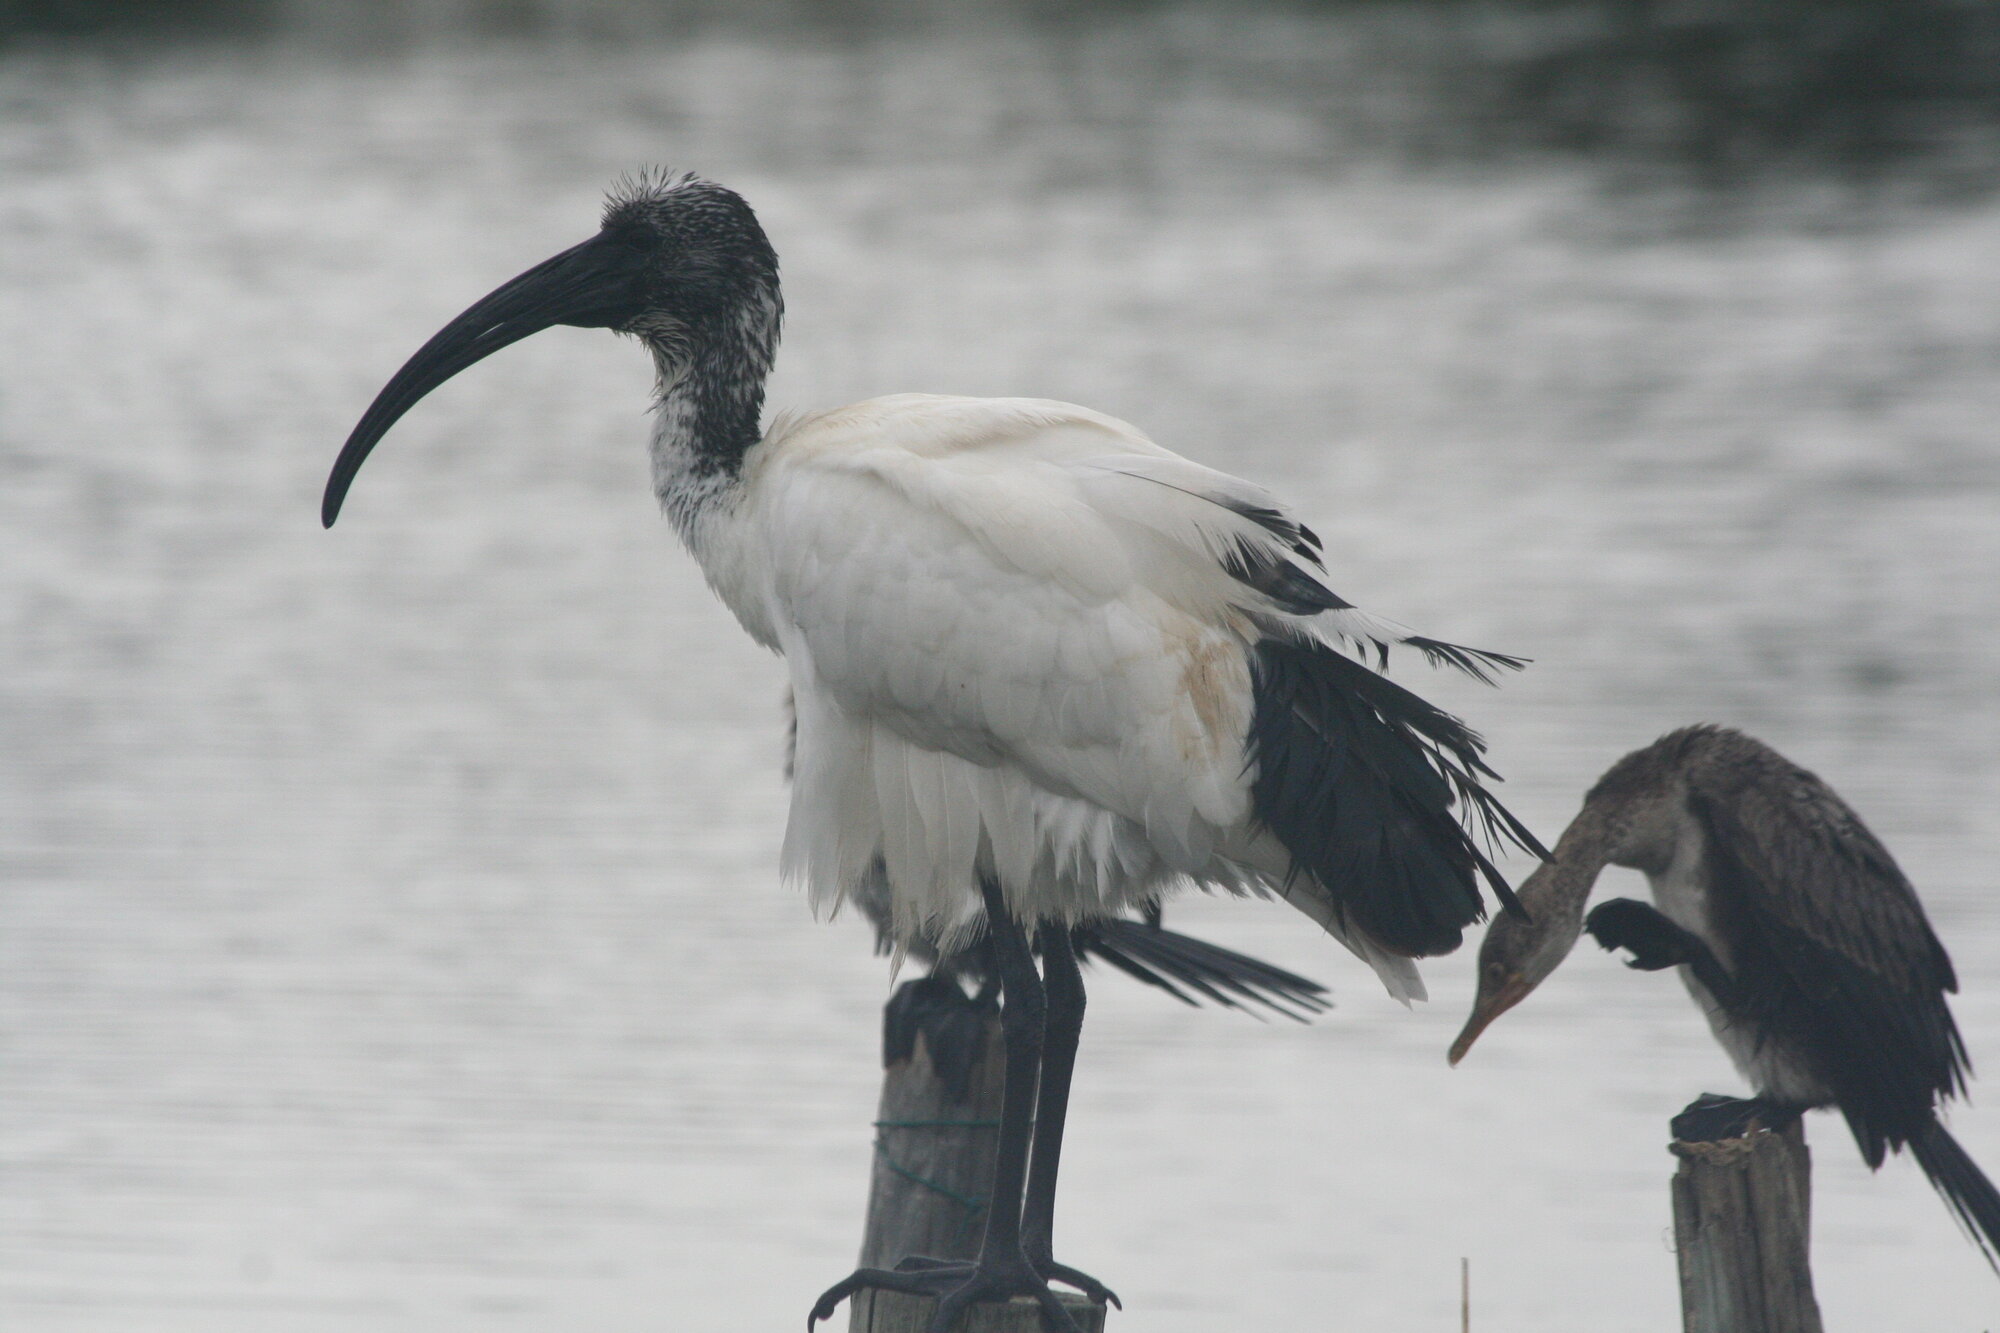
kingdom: Animalia
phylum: Chordata
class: Aves
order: Pelecaniformes
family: Threskiornithidae
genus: Threskiornis
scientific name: Threskiornis aethiopicus
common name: Sacred ibis
